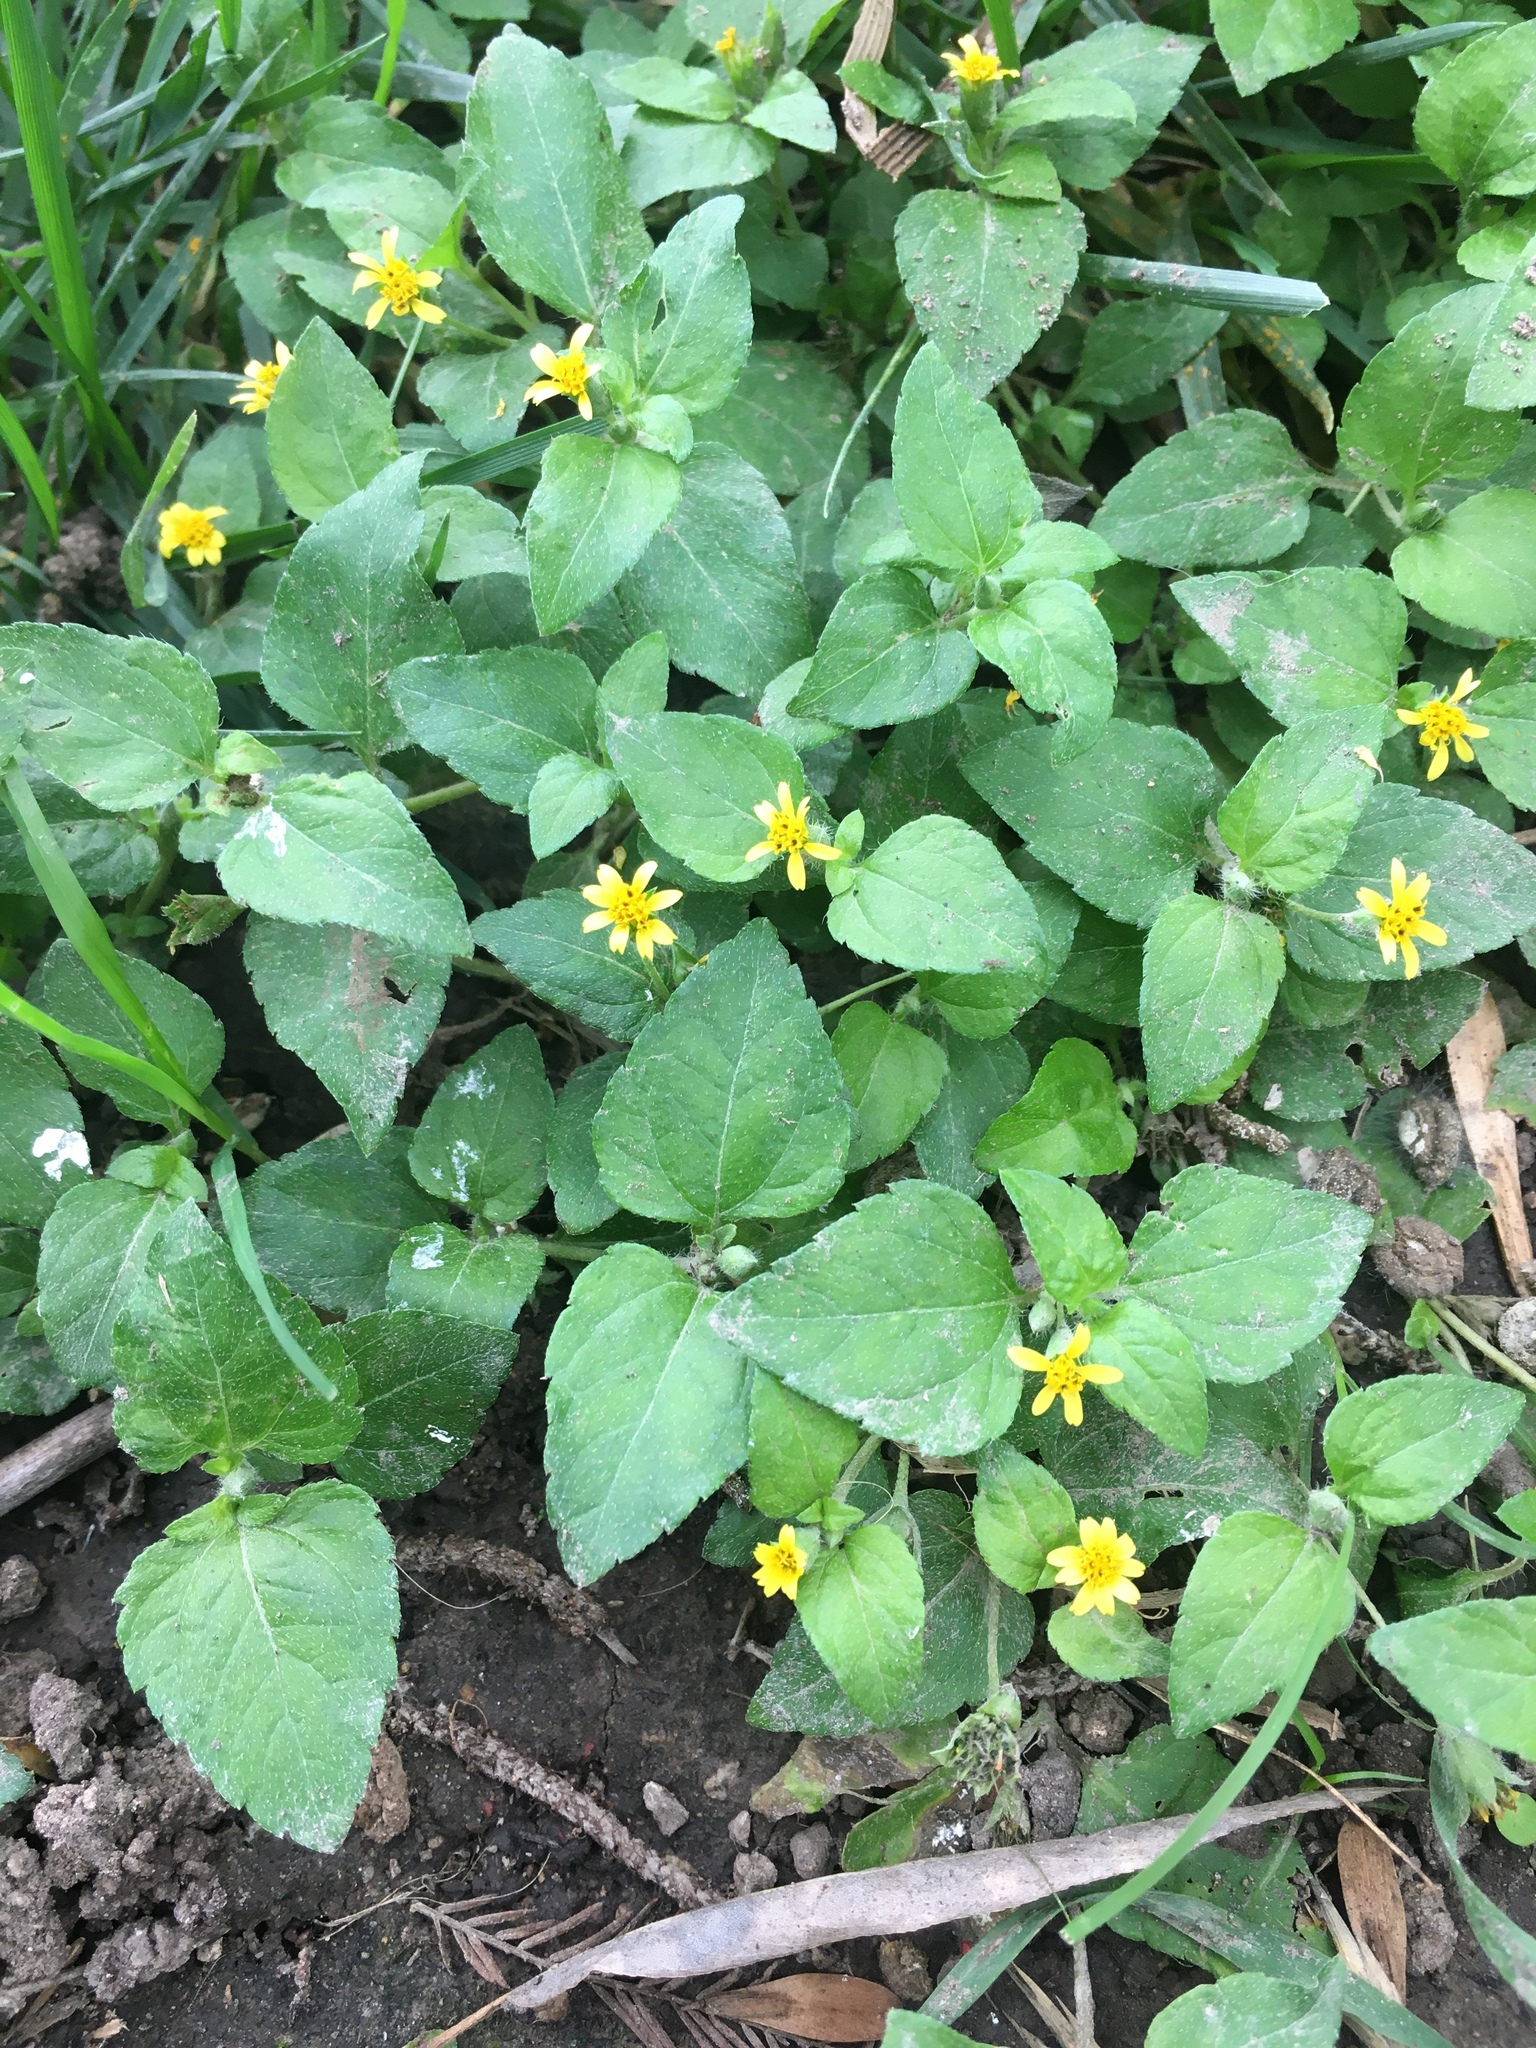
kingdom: Plantae
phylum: Tracheophyta
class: Magnoliopsida
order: Asterales
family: Asteraceae
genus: Calyptocarpus
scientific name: Calyptocarpus vialis
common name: Straggler daisy
